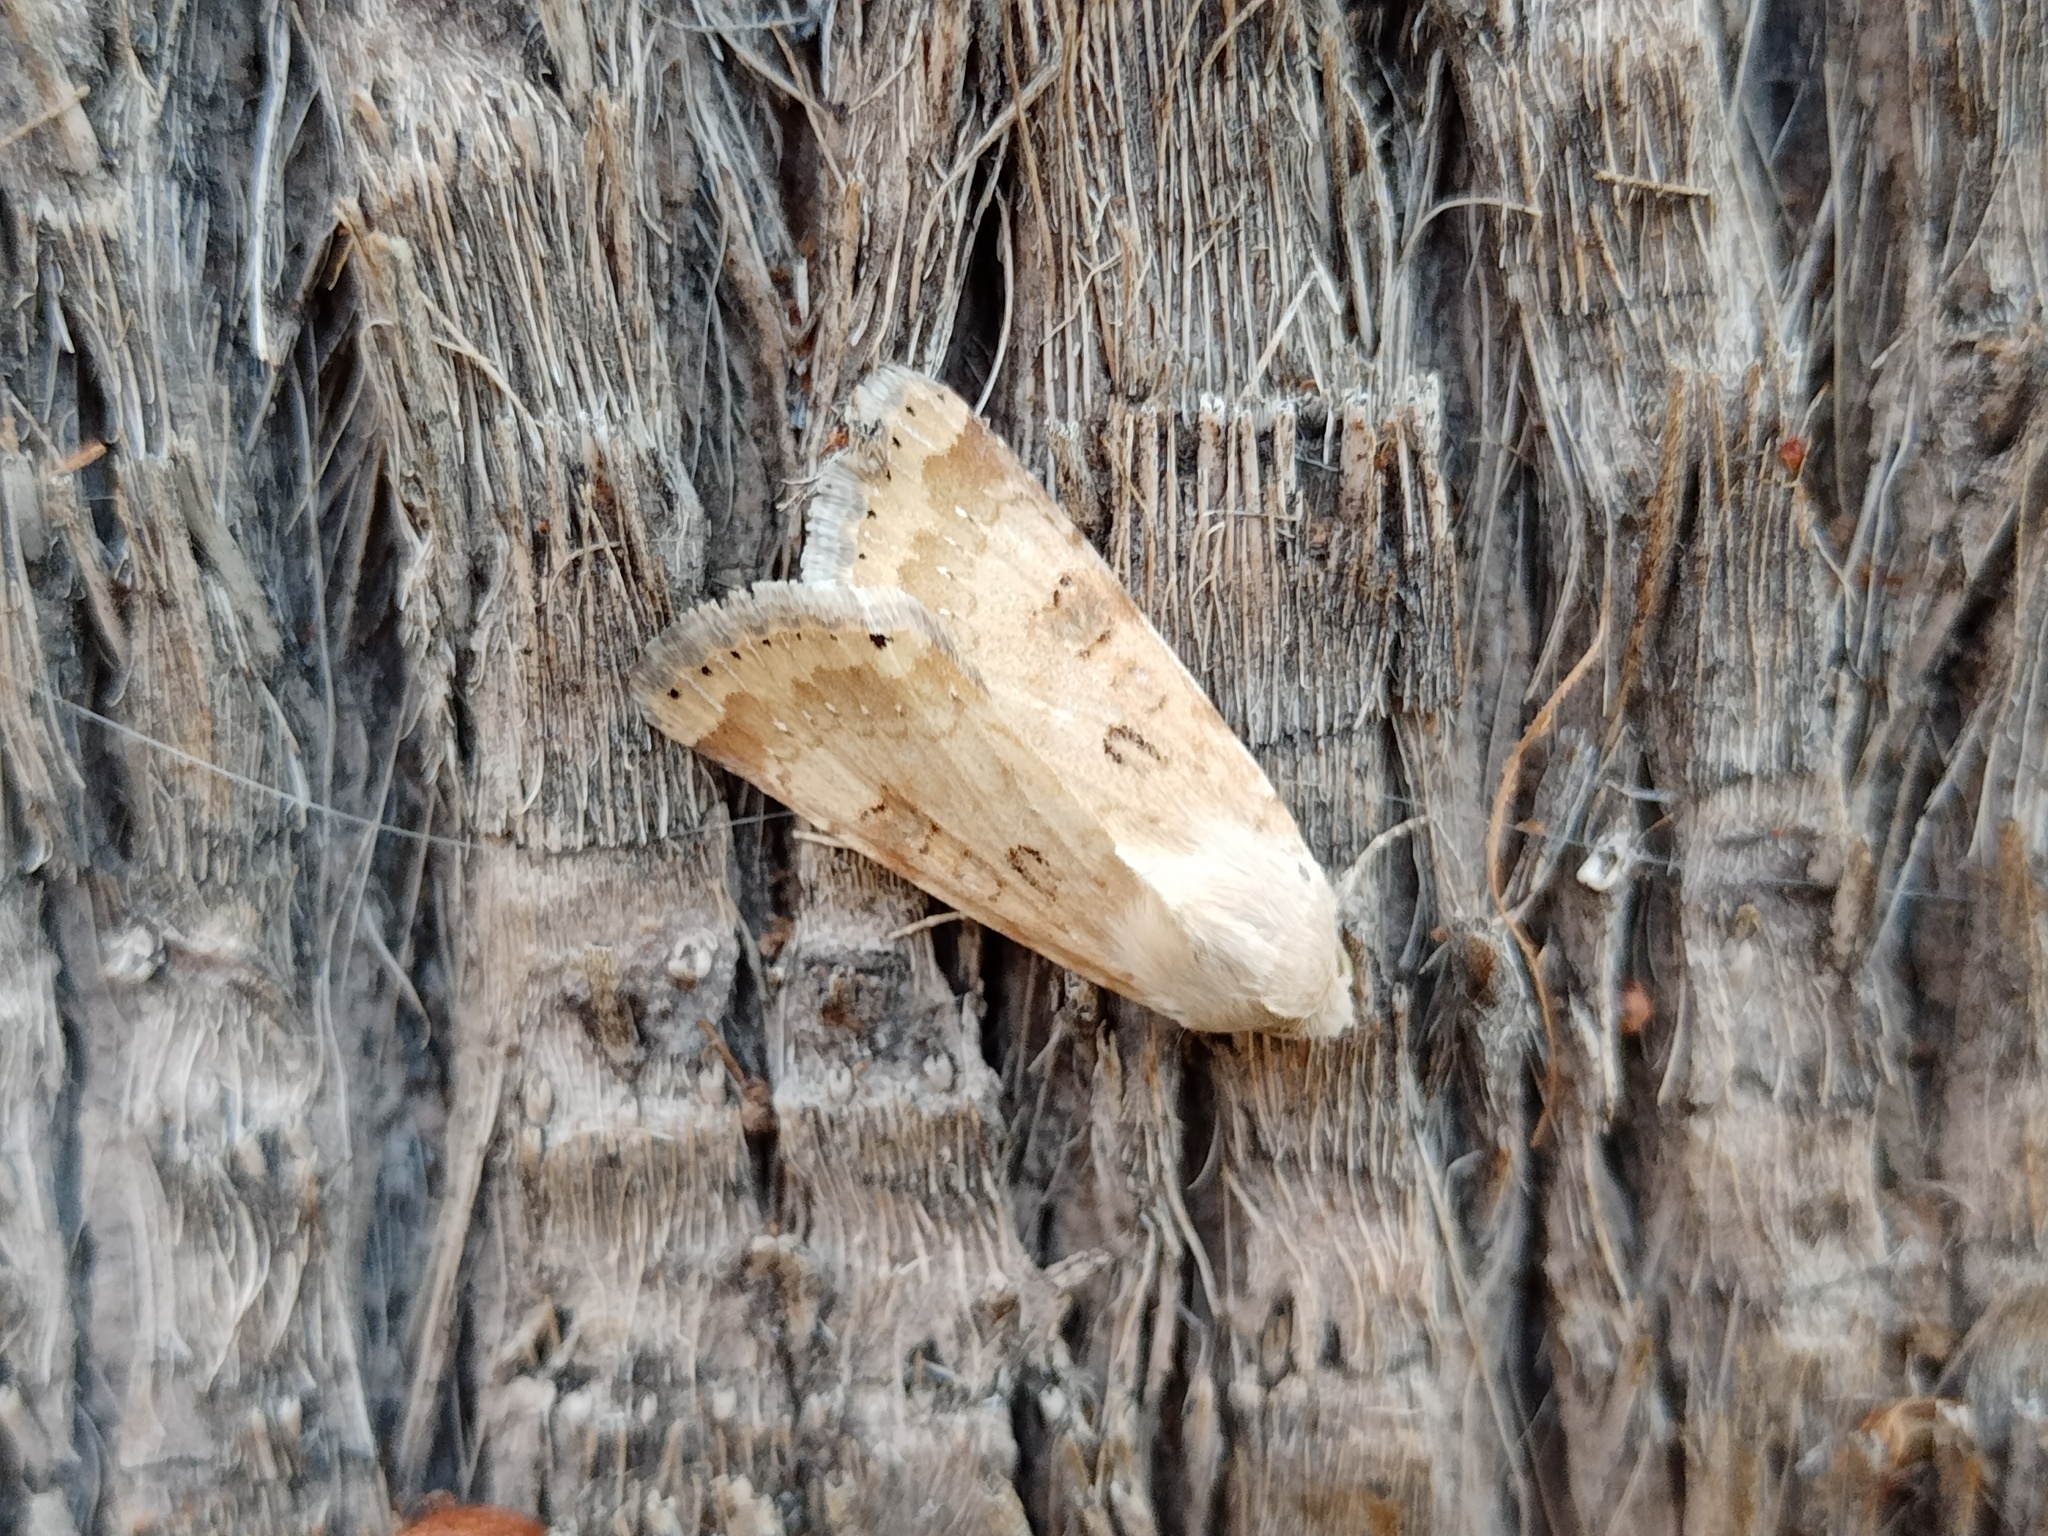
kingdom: Animalia
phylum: Arthropoda
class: Insecta
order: Lepidoptera
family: Noctuidae
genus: Heliothis
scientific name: Heliothis nubigera
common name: Eastern bordered straw
